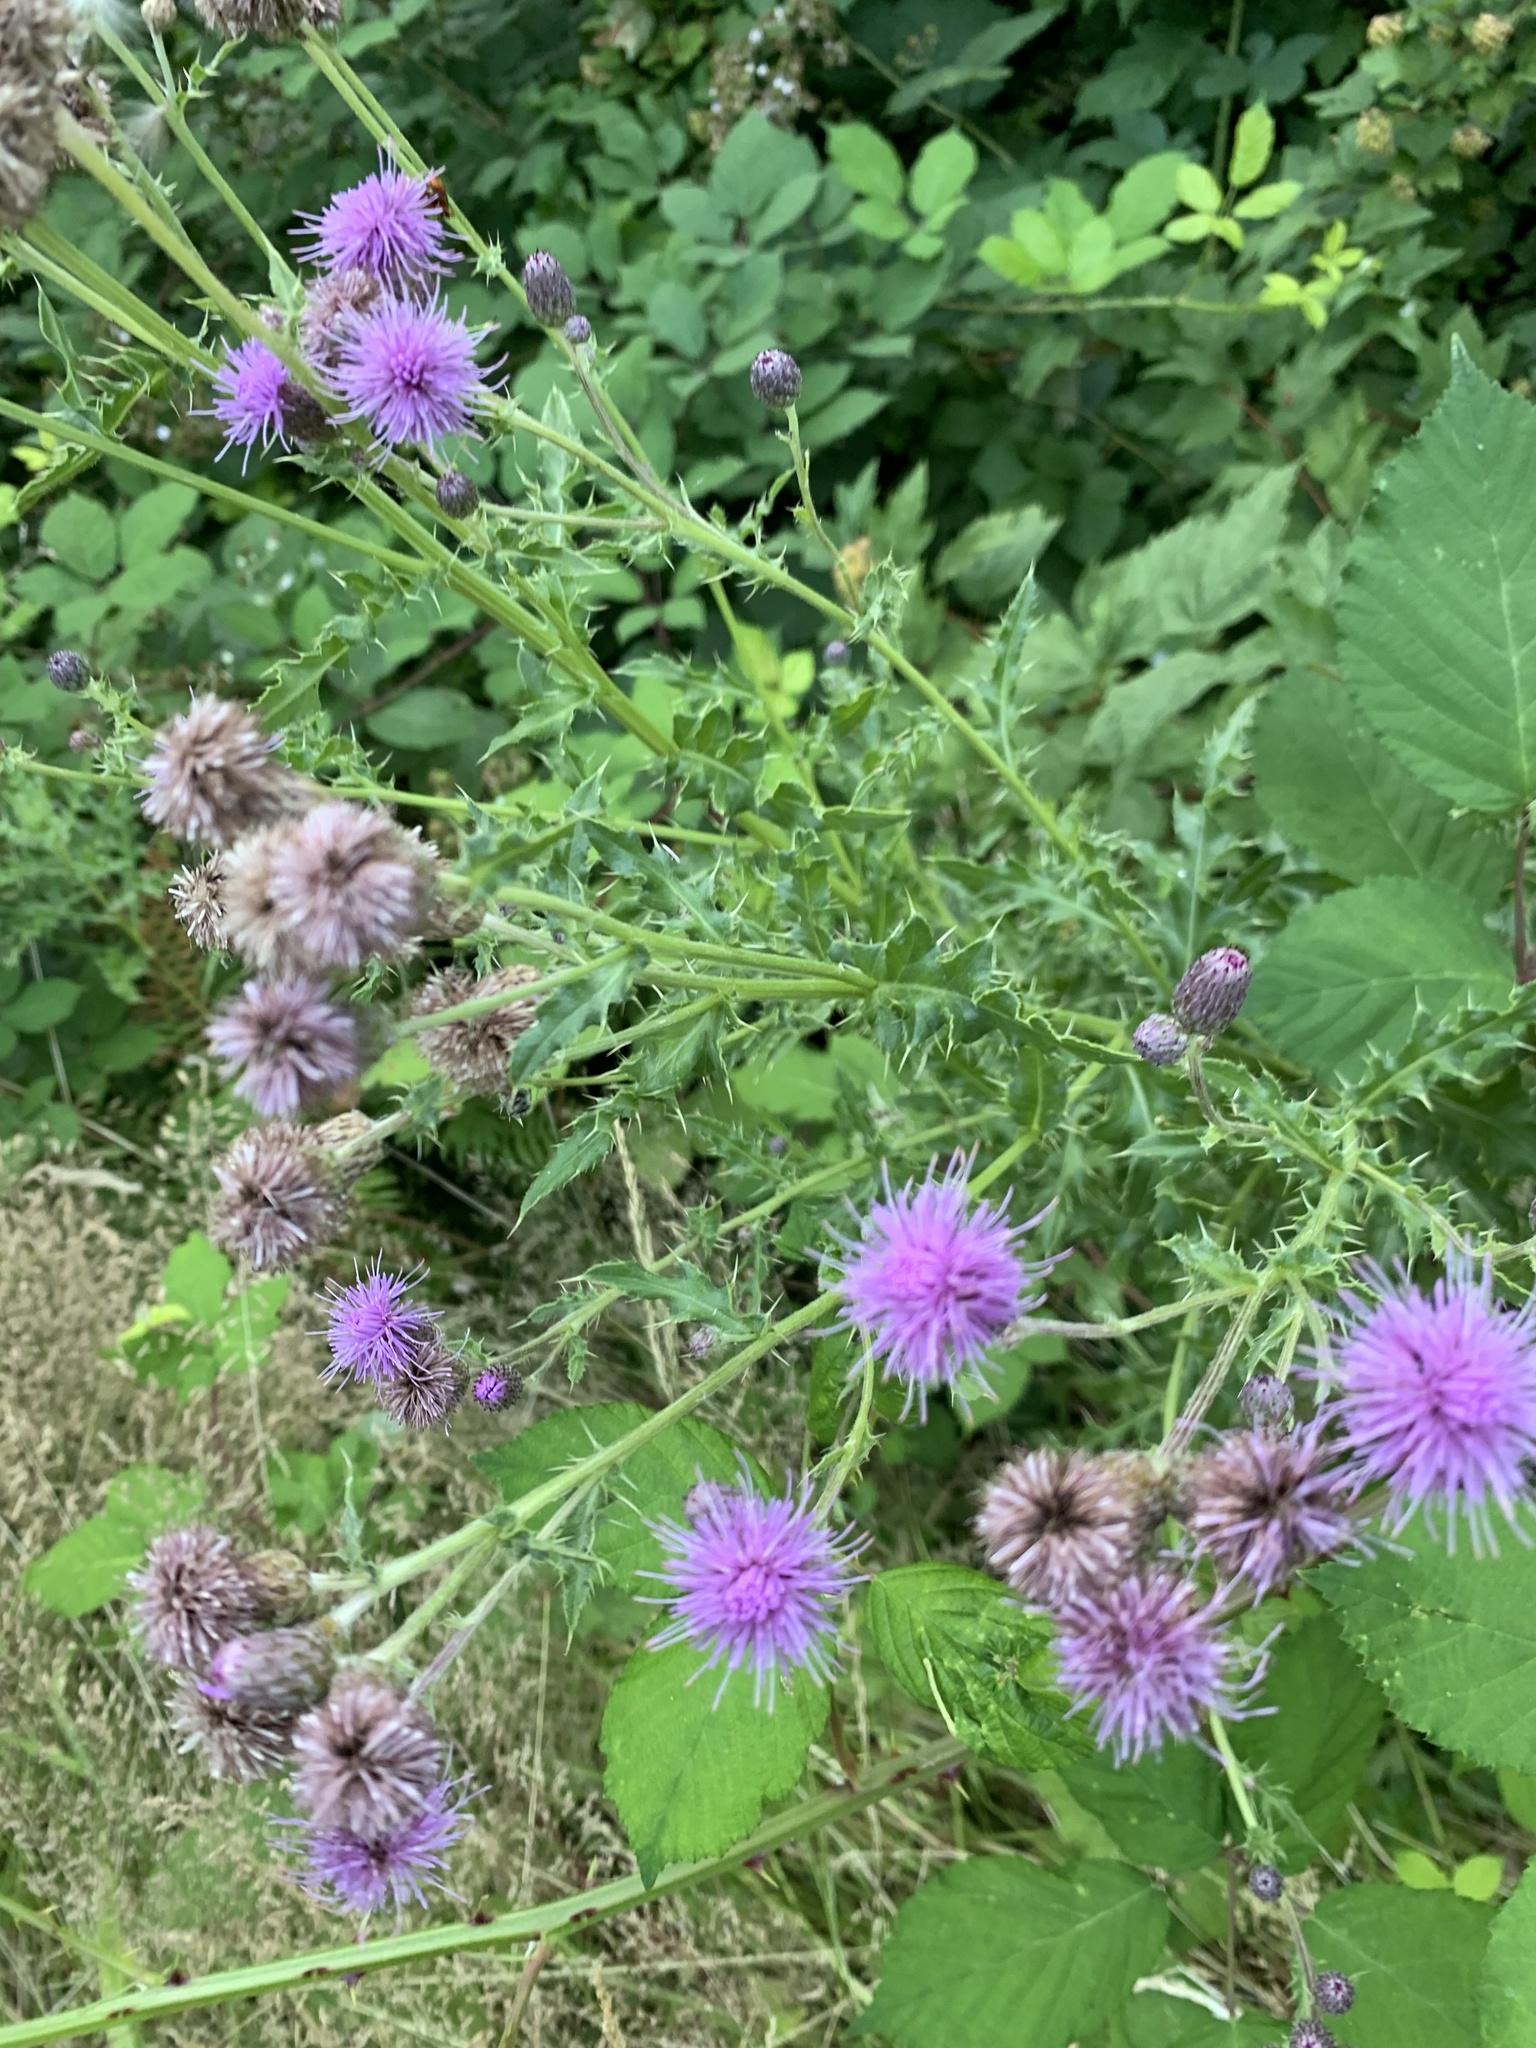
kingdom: Plantae
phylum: Tracheophyta
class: Magnoliopsida
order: Asterales
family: Asteraceae
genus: Cirsium
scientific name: Cirsium arvense
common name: Creeping thistle
